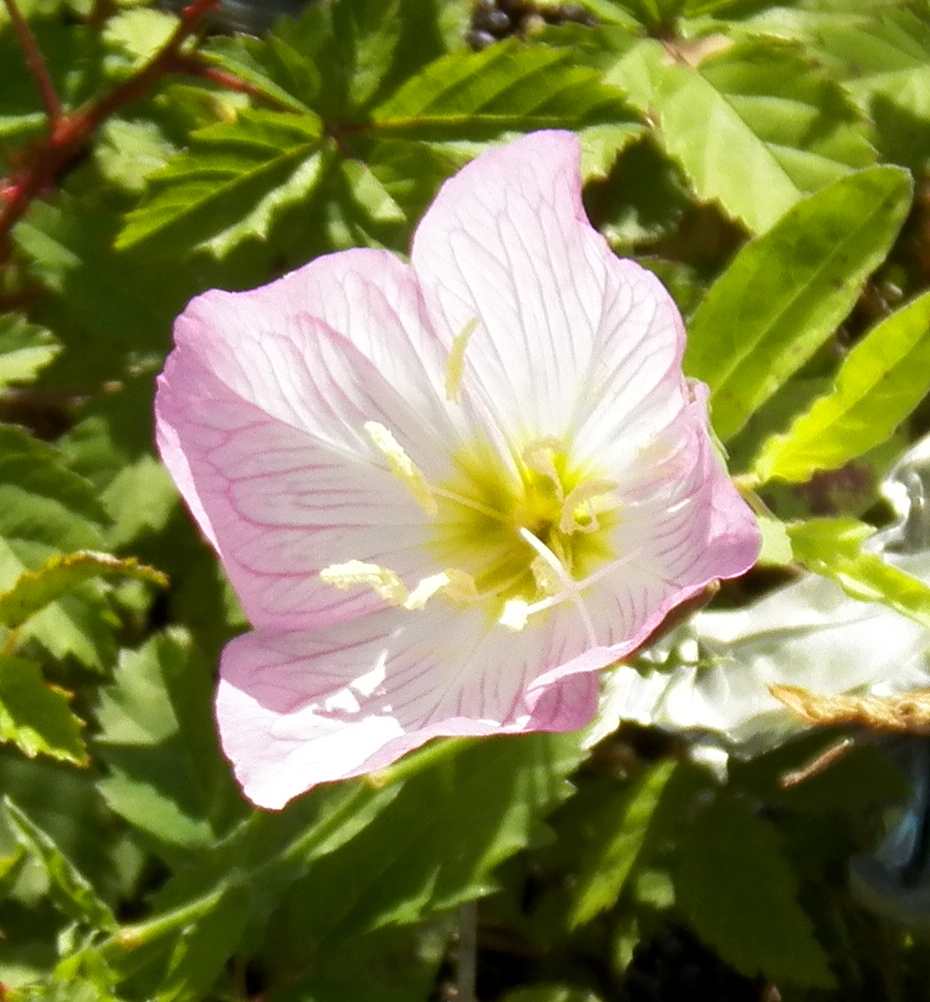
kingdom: Plantae
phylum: Tracheophyta
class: Magnoliopsida
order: Myrtales
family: Onagraceae
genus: Oenothera
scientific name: Oenothera speciosa
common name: White evening-primrose
